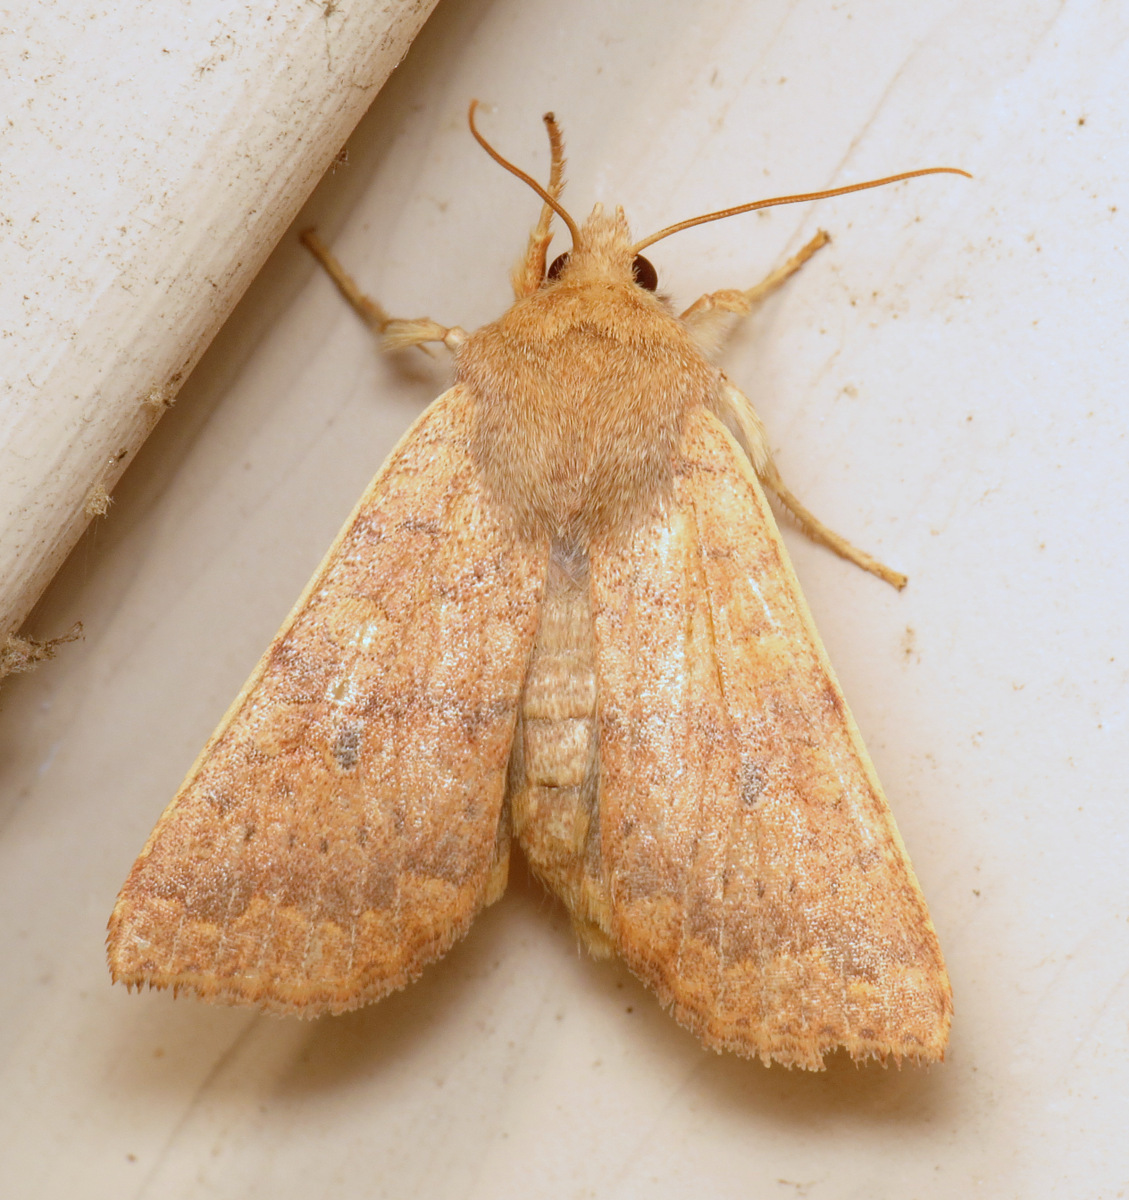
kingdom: Animalia
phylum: Arthropoda
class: Insecta
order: Lepidoptera
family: Noctuidae
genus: Agrochola
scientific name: Agrochola bicolorago
